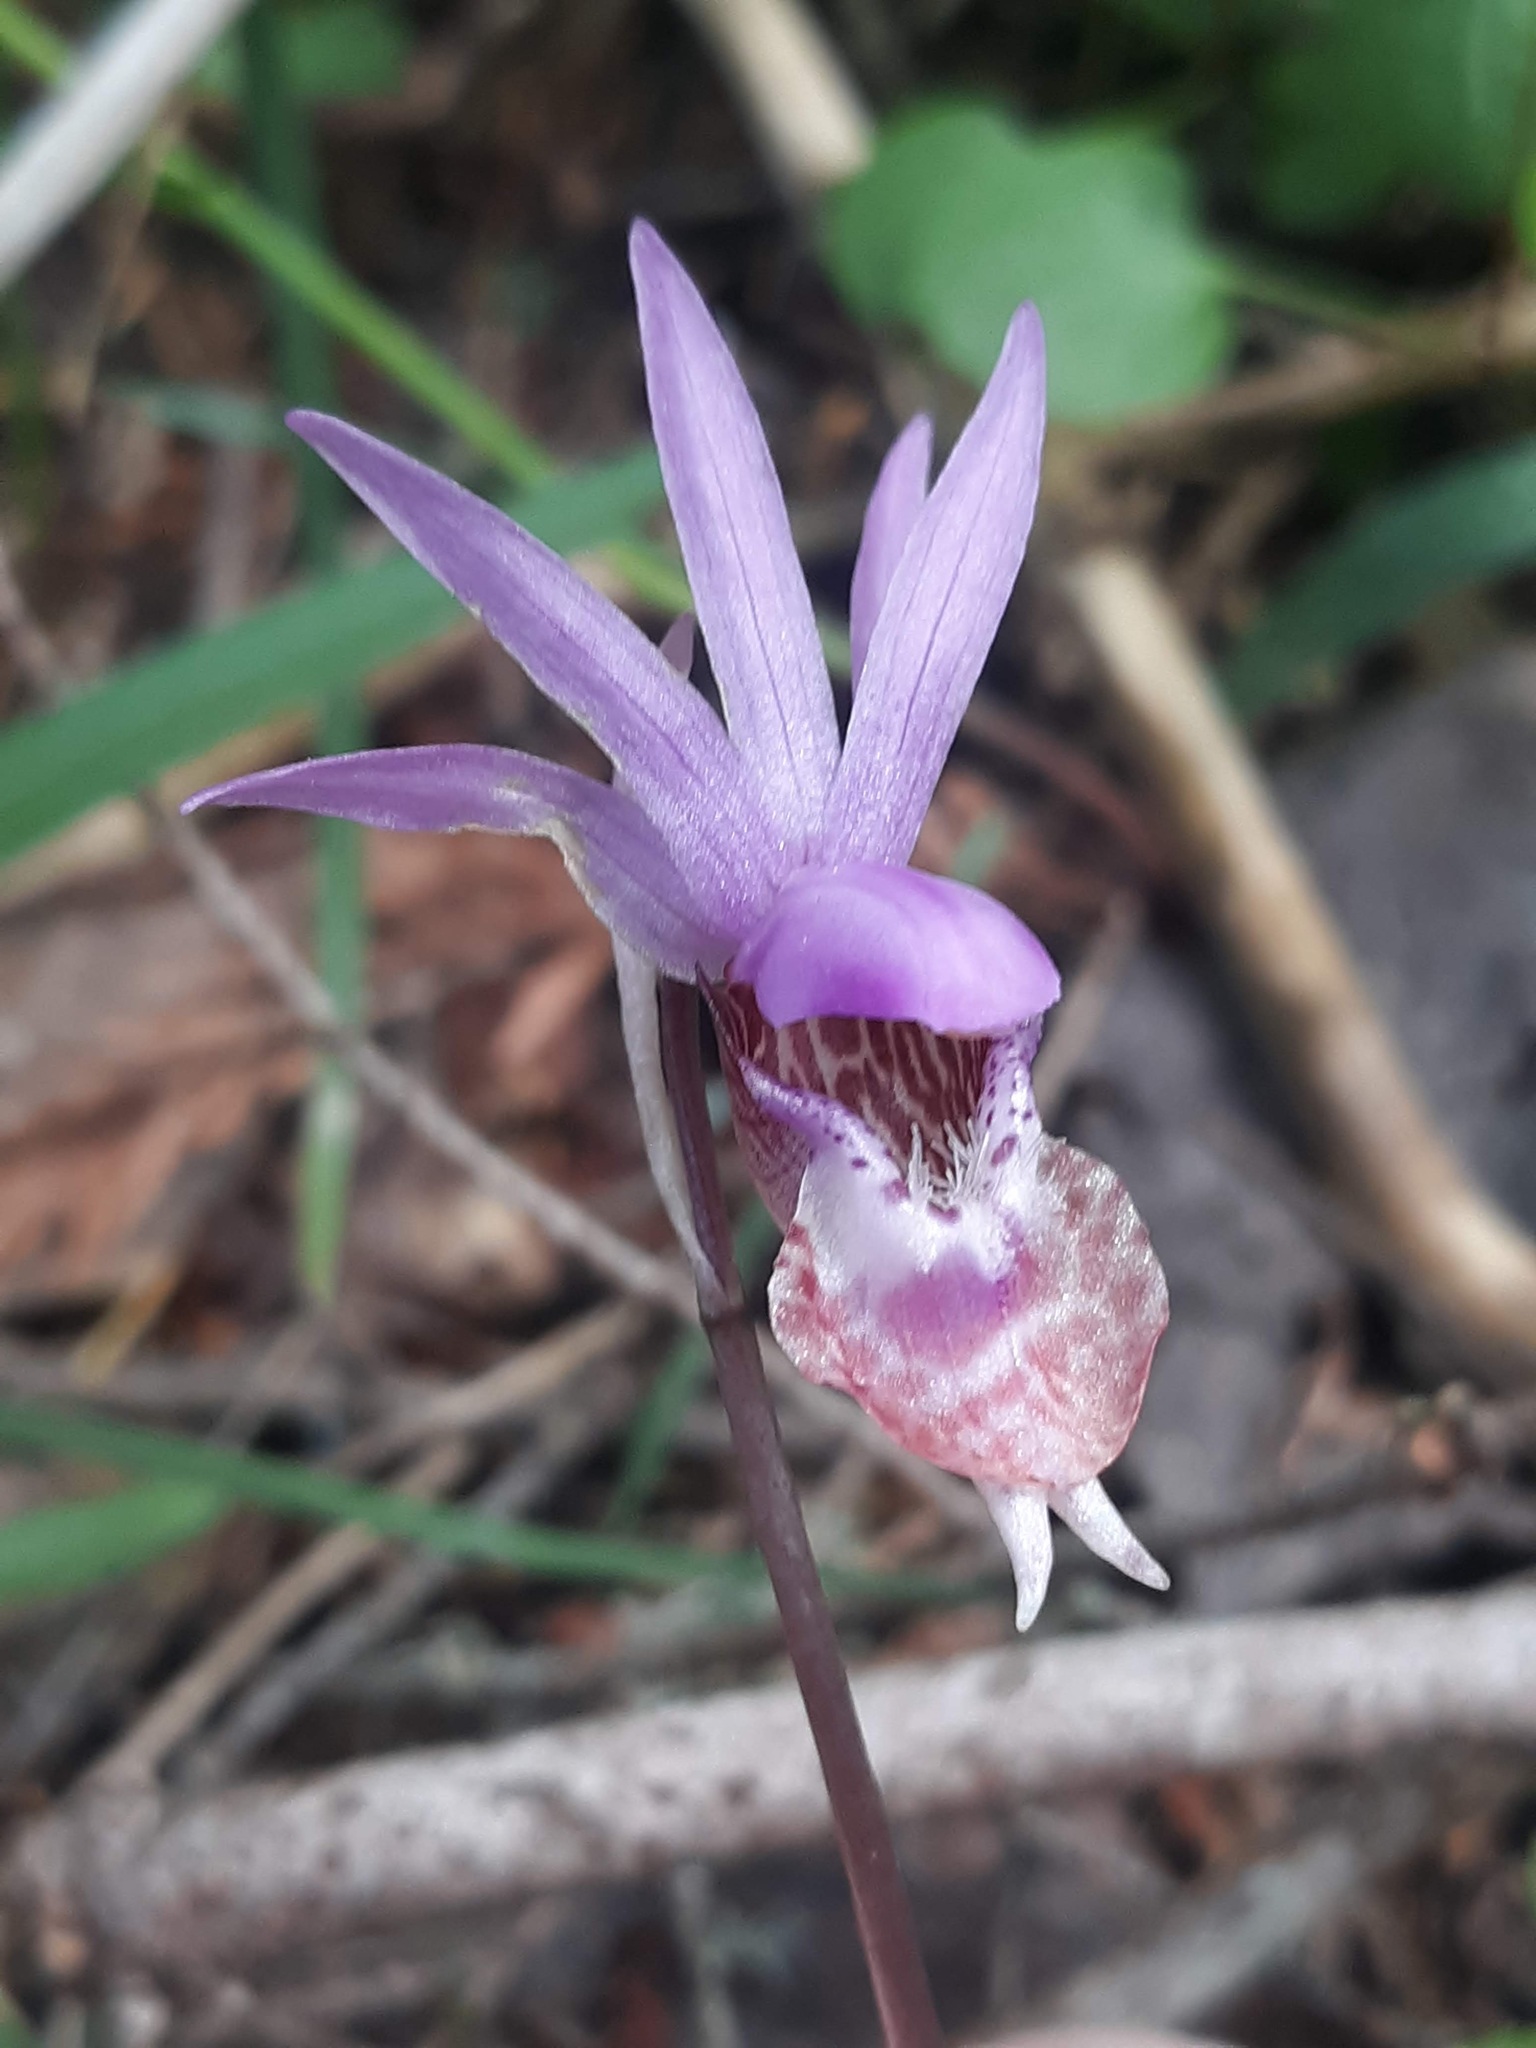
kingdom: Plantae
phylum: Tracheophyta
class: Liliopsida
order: Asparagales
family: Orchidaceae
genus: Calypso
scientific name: Calypso bulbosa
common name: Calypso
